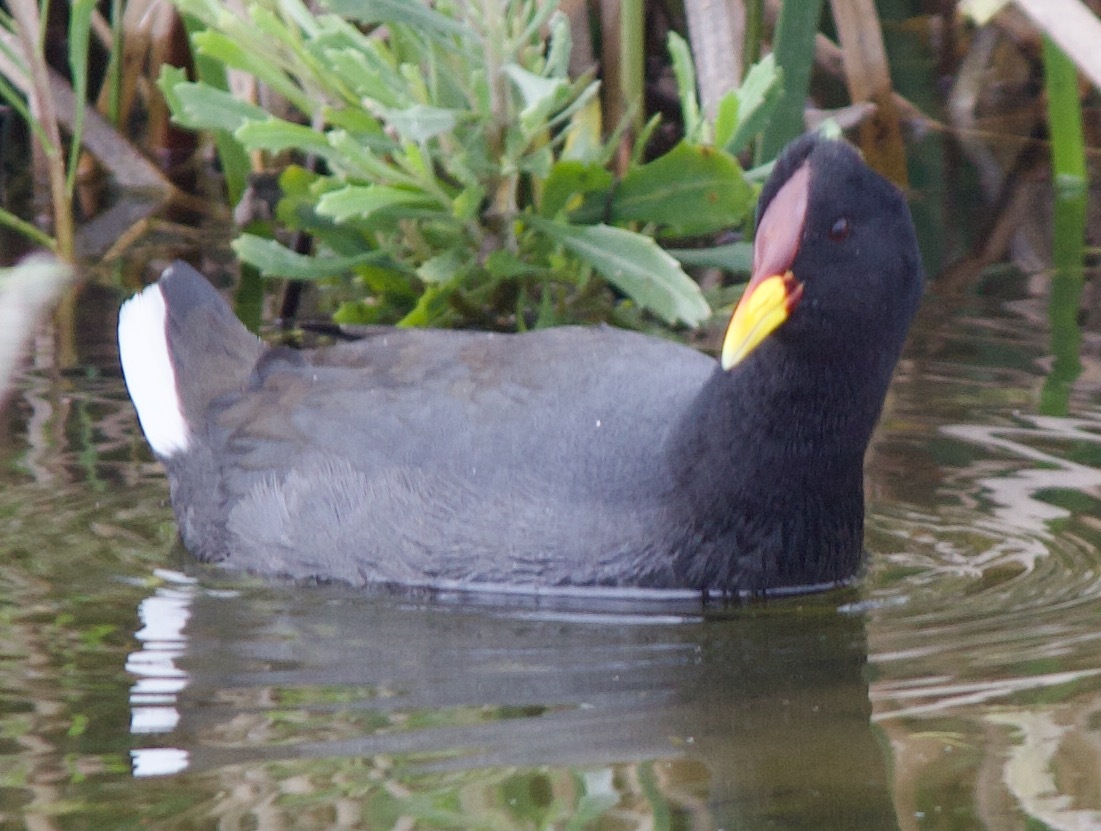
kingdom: Animalia
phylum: Chordata
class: Aves
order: Gruiformes
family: Rallidae
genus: Fulica
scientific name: Fulica rufifrons
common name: Red-fronted coot
